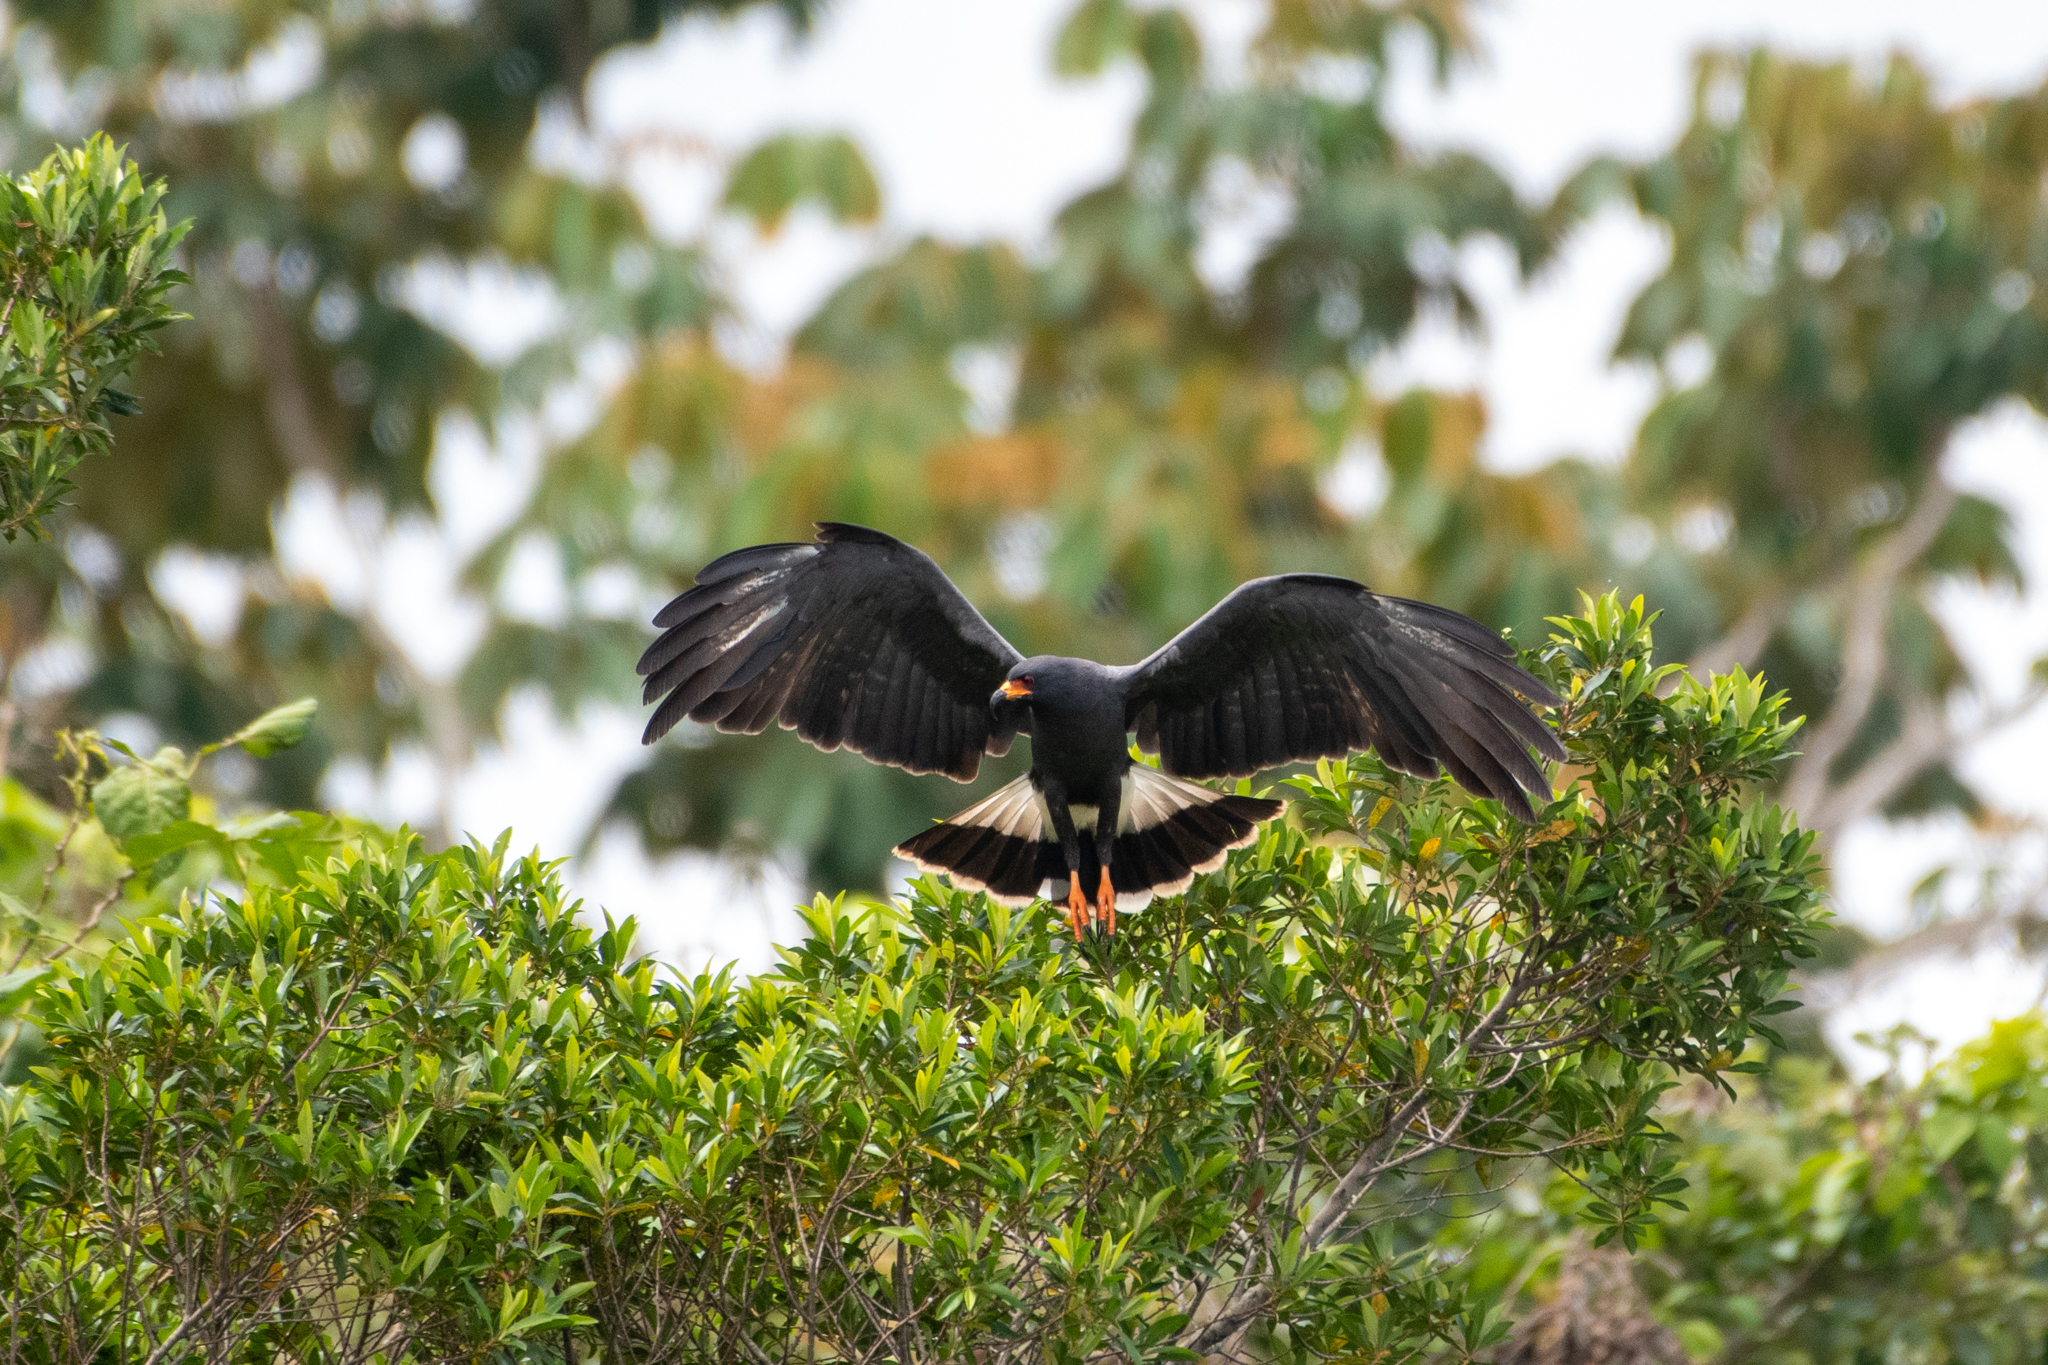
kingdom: Animalia
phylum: Chordata
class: Aves
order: Accipitriformes
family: Accipitridae
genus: Rostrhamus
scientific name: Rostrhamus sociabilis
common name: Snail kite
